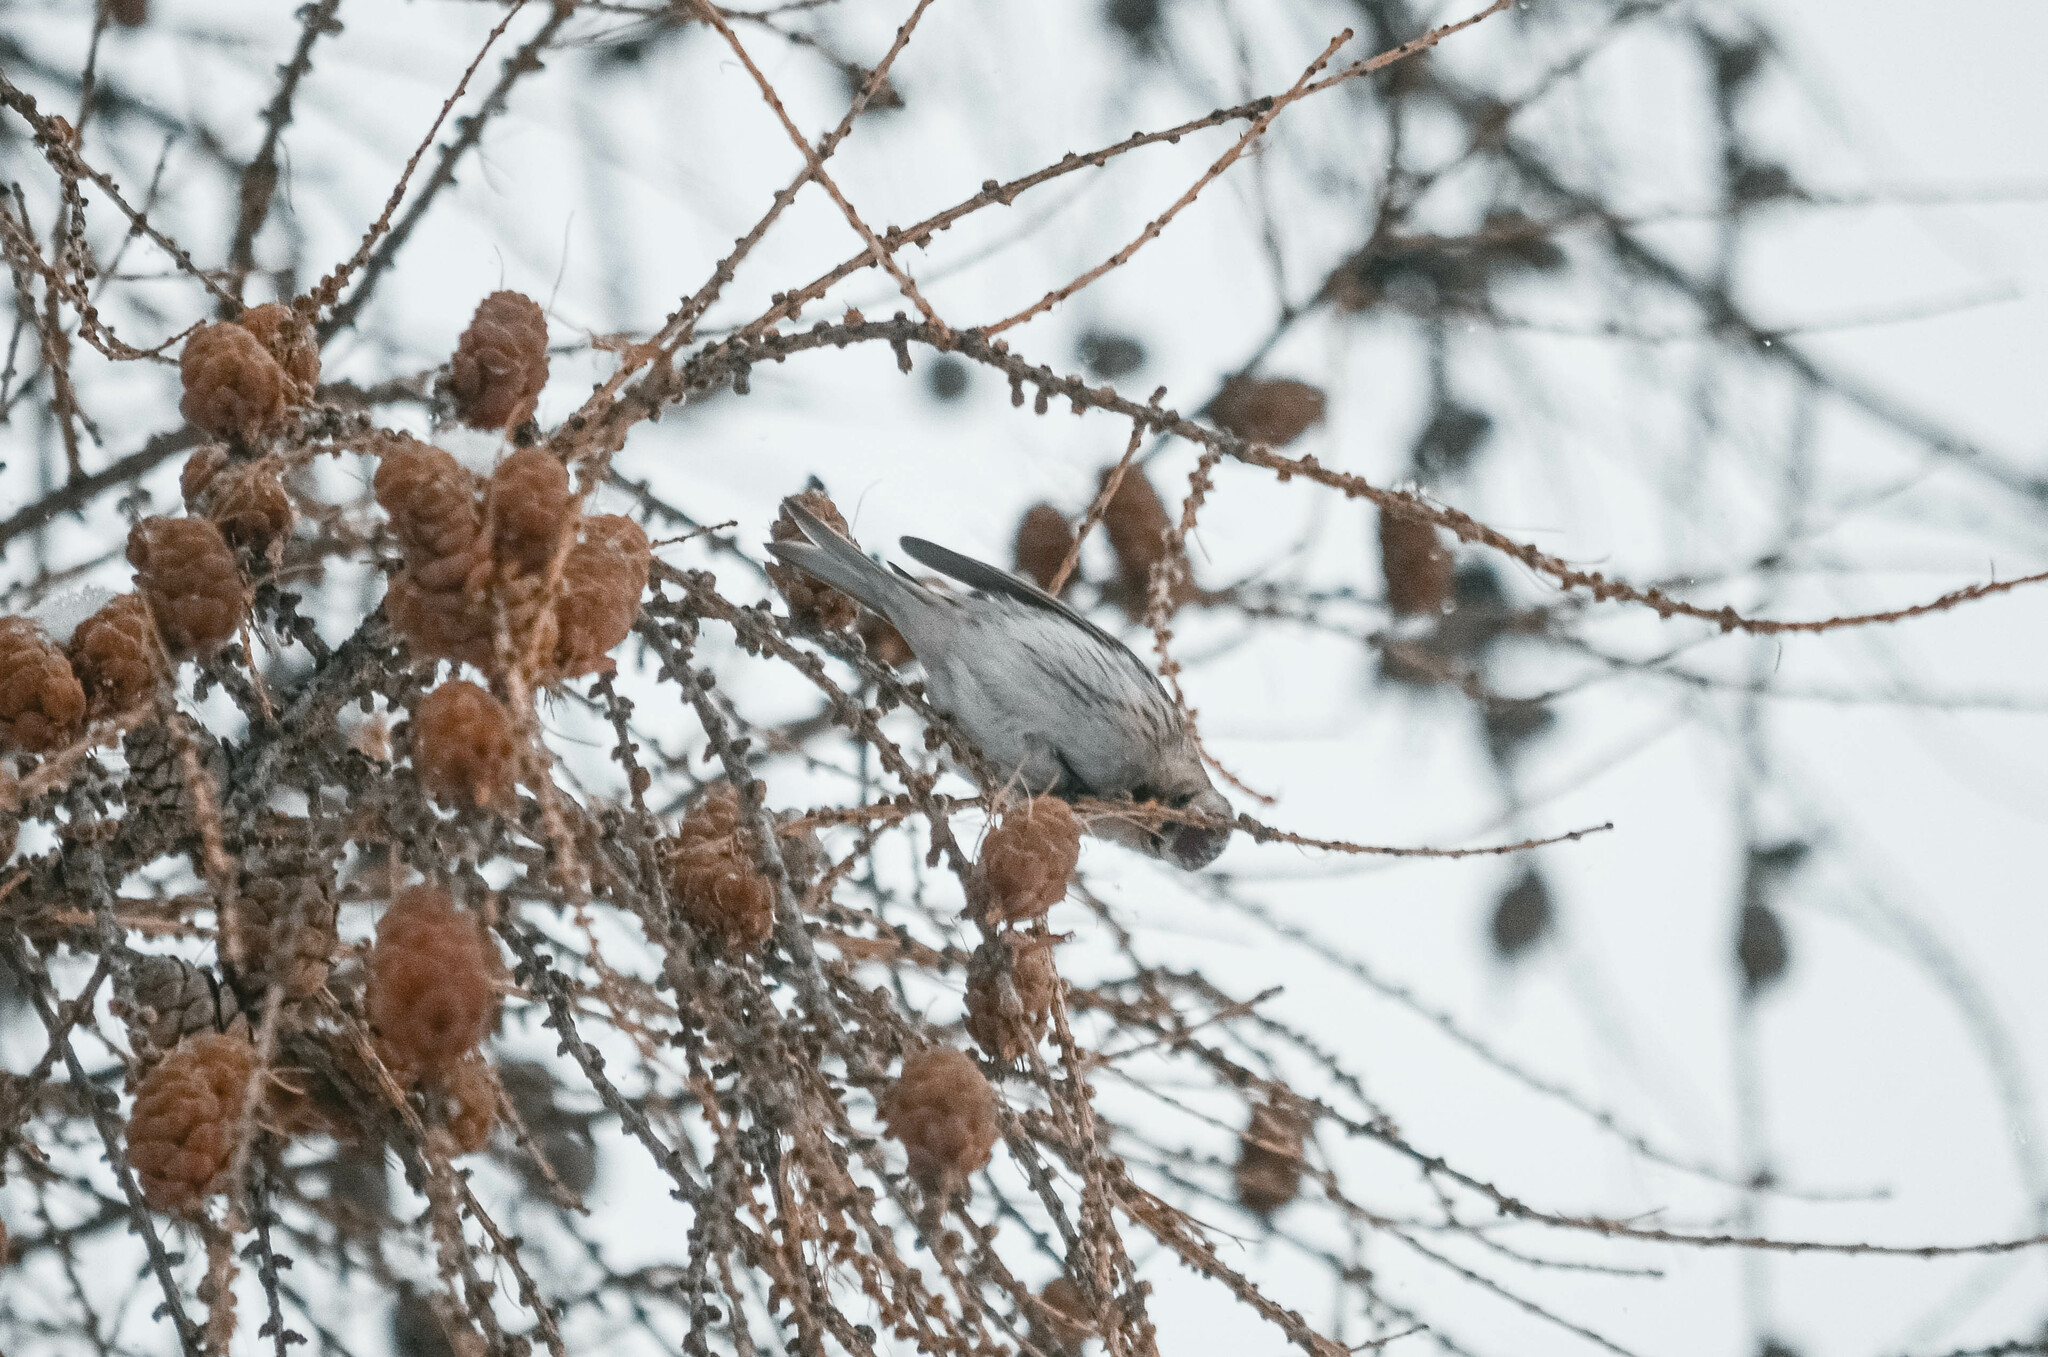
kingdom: Animalia
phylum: Chordata
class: Aves
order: Passeriformes
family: Fringillidae
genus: Acanthis
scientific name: Acanthis flammea
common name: Common redpoll
